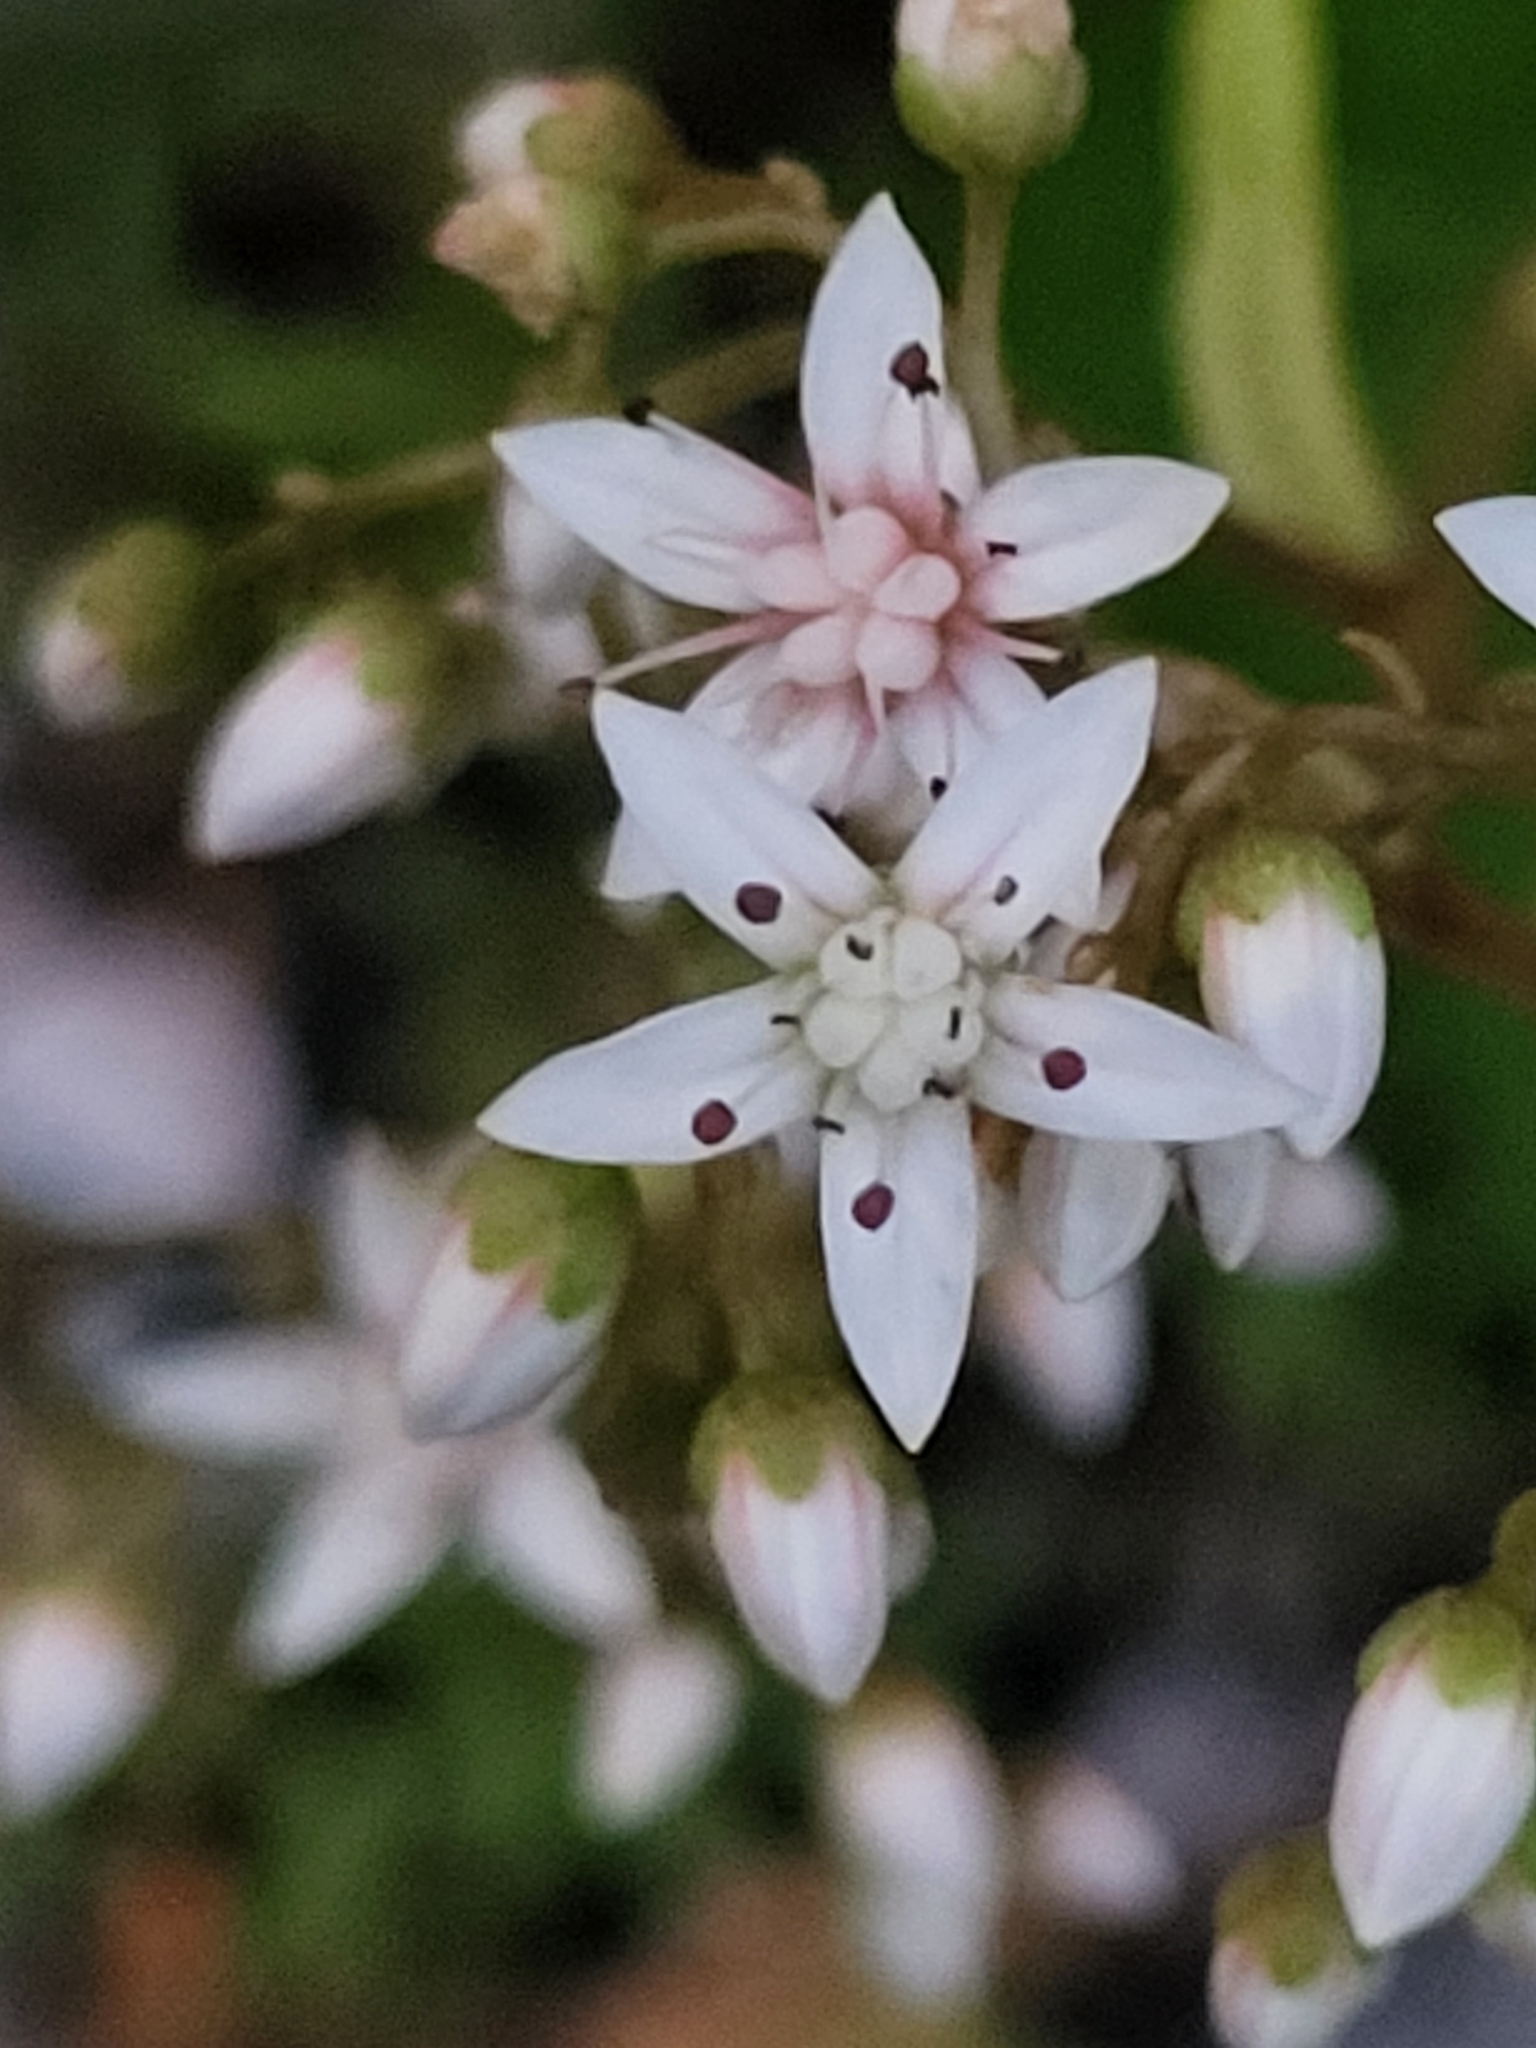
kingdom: Plantae
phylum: Tracheophyta
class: Magnoliopsida
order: Saxifragales
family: Crassulaceae
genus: Sedum
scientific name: Sedum album
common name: White stonecrop
